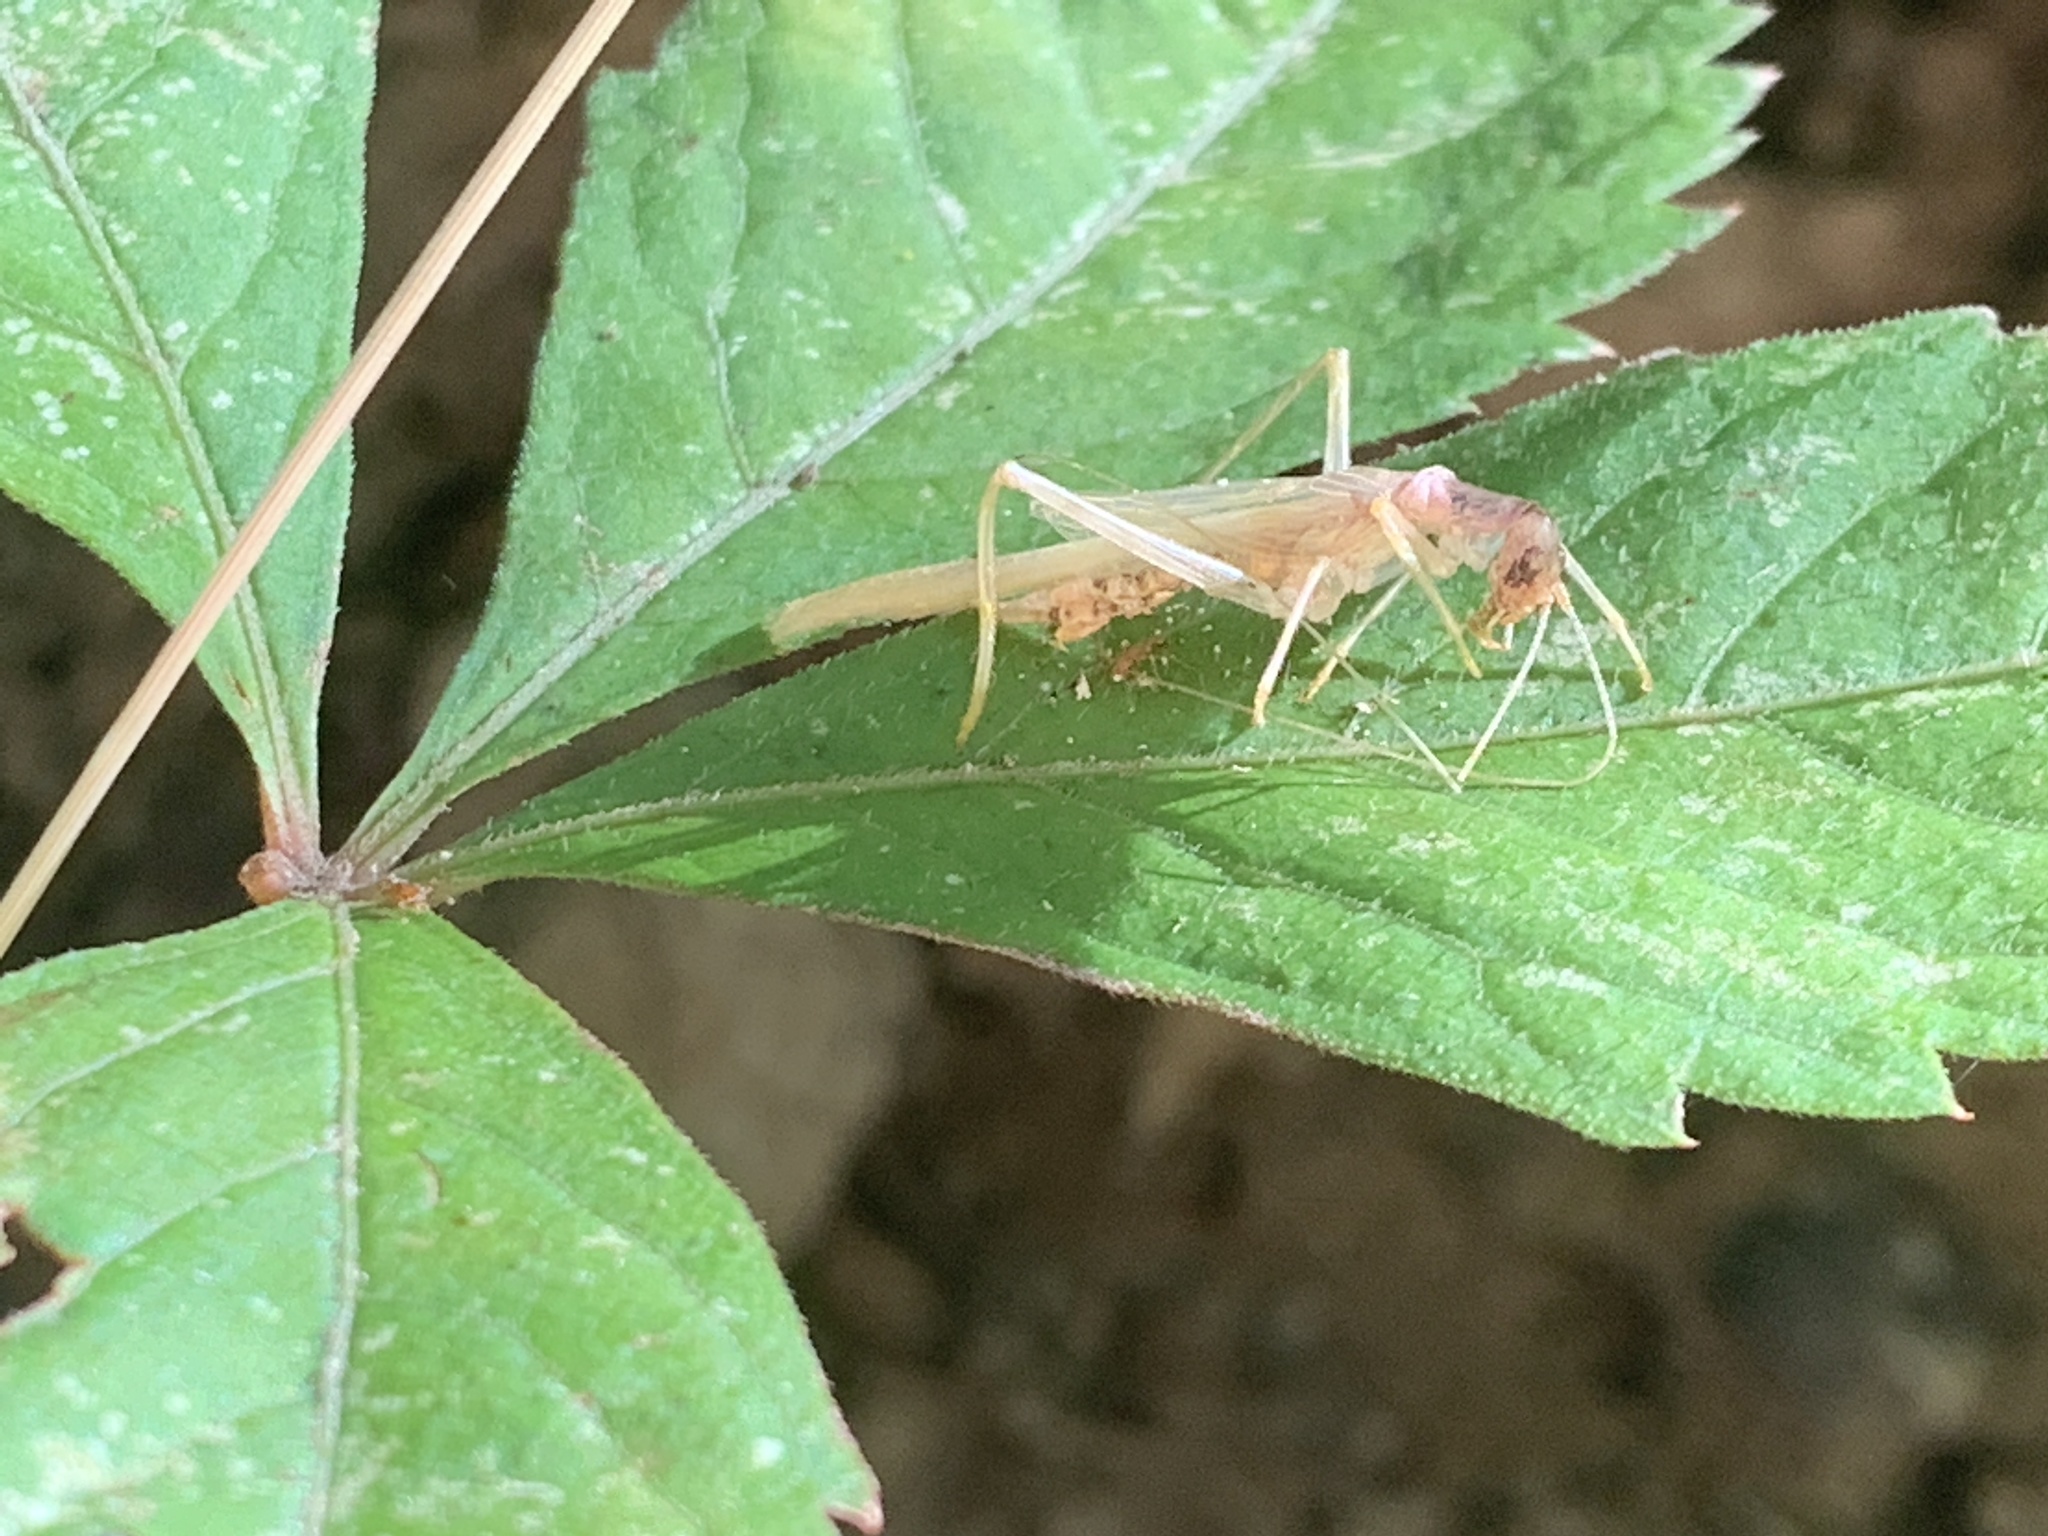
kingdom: Animalia
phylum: Arthropoda
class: Insecta
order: Orthoptera
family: Gryllidae
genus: Neoxabea
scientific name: Neoxabea bipunctata
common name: Two-spotted tree cricket
